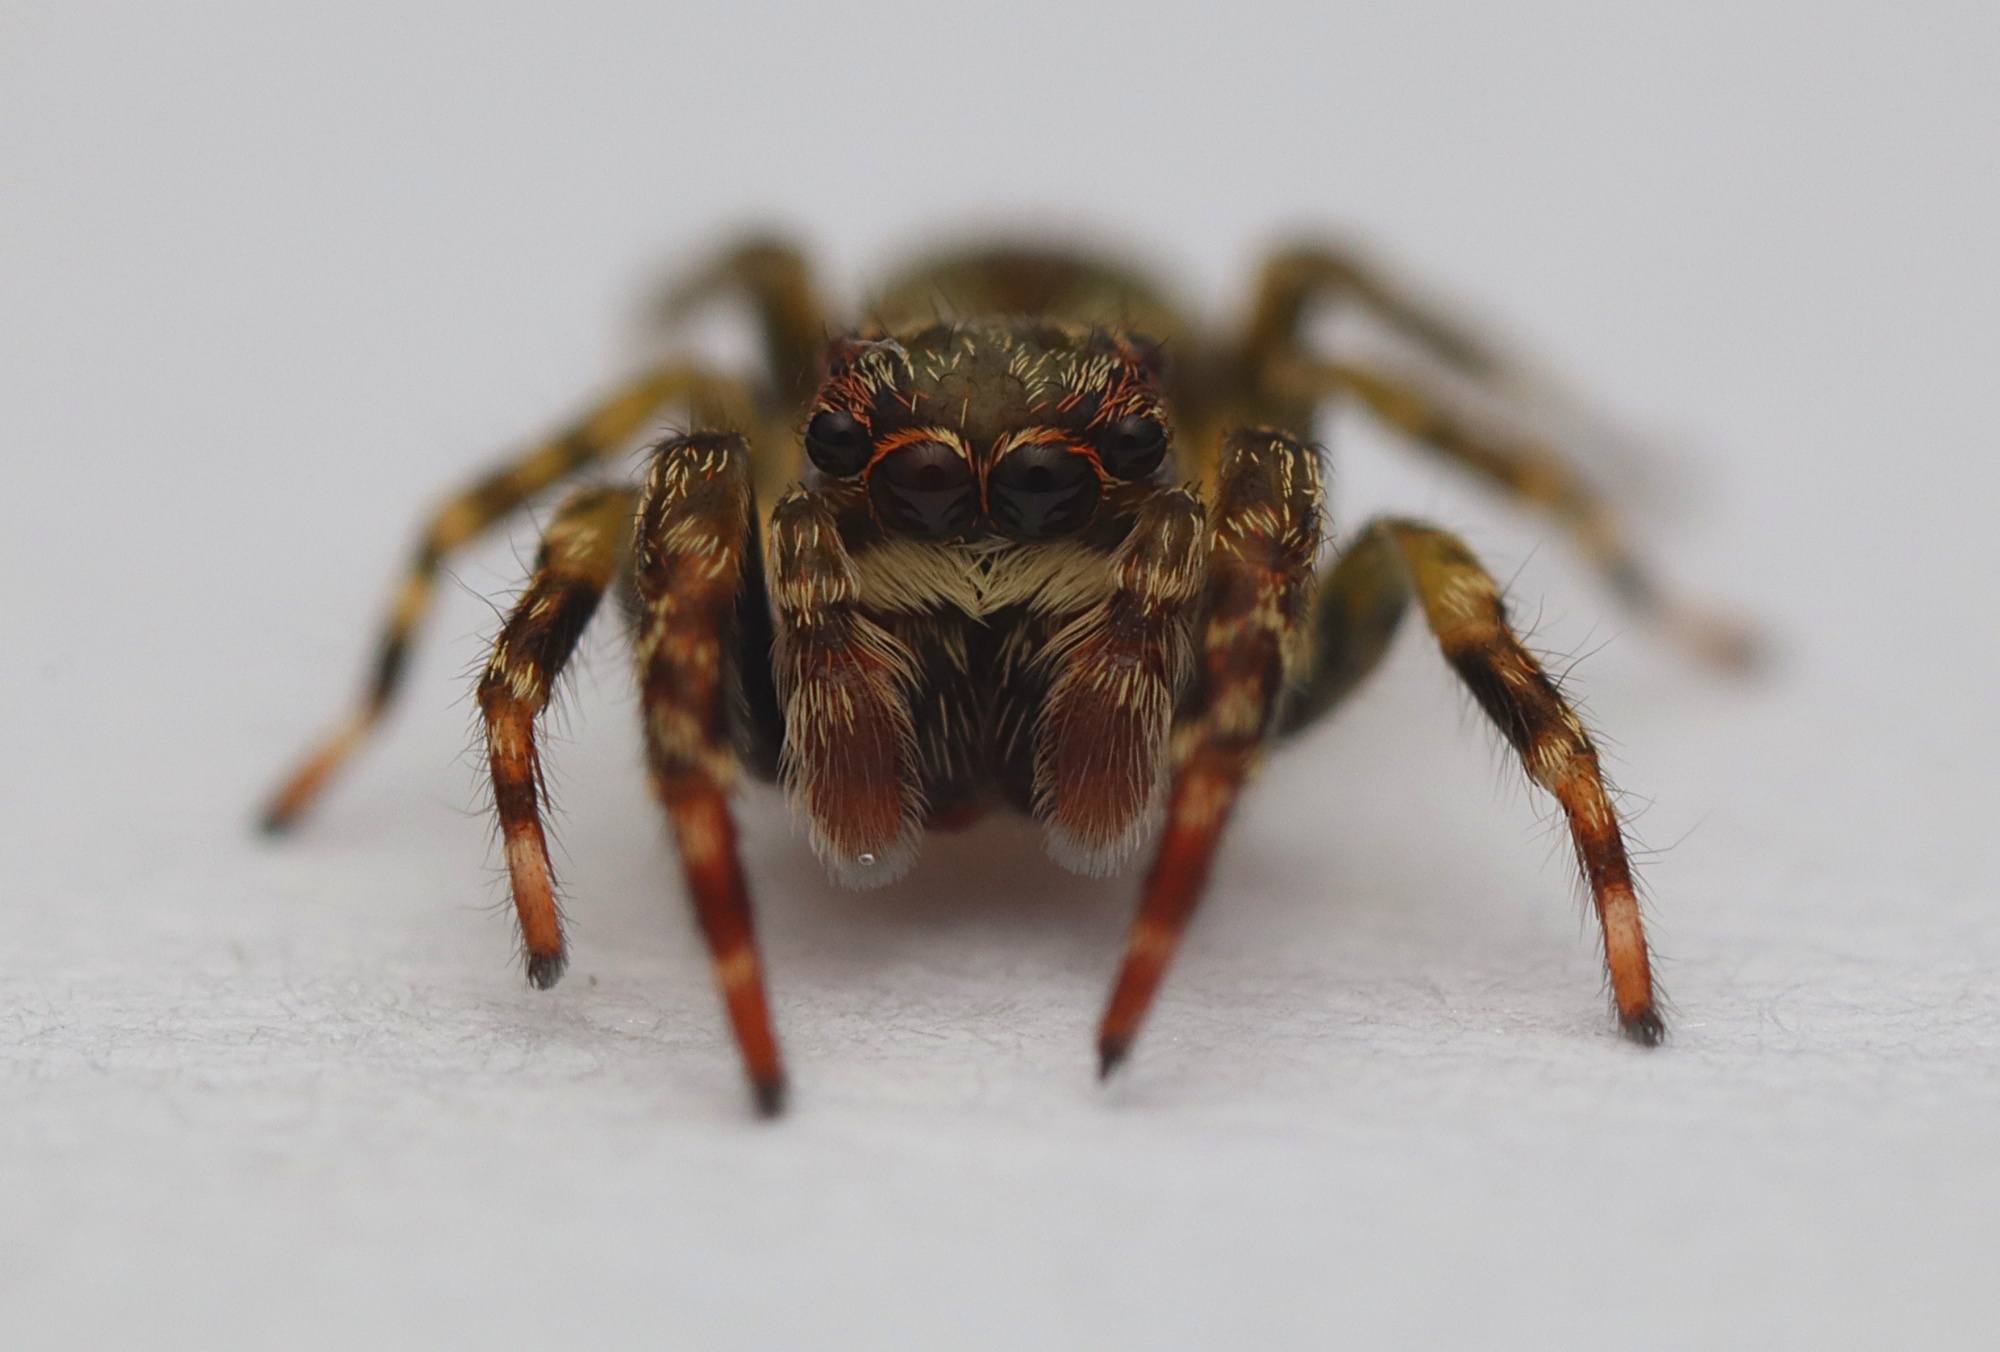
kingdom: Animalia
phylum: Arthropoda
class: Arachnida
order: Araneae
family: Salticidae
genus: Hinewaia
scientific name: Hinewaia embolica
